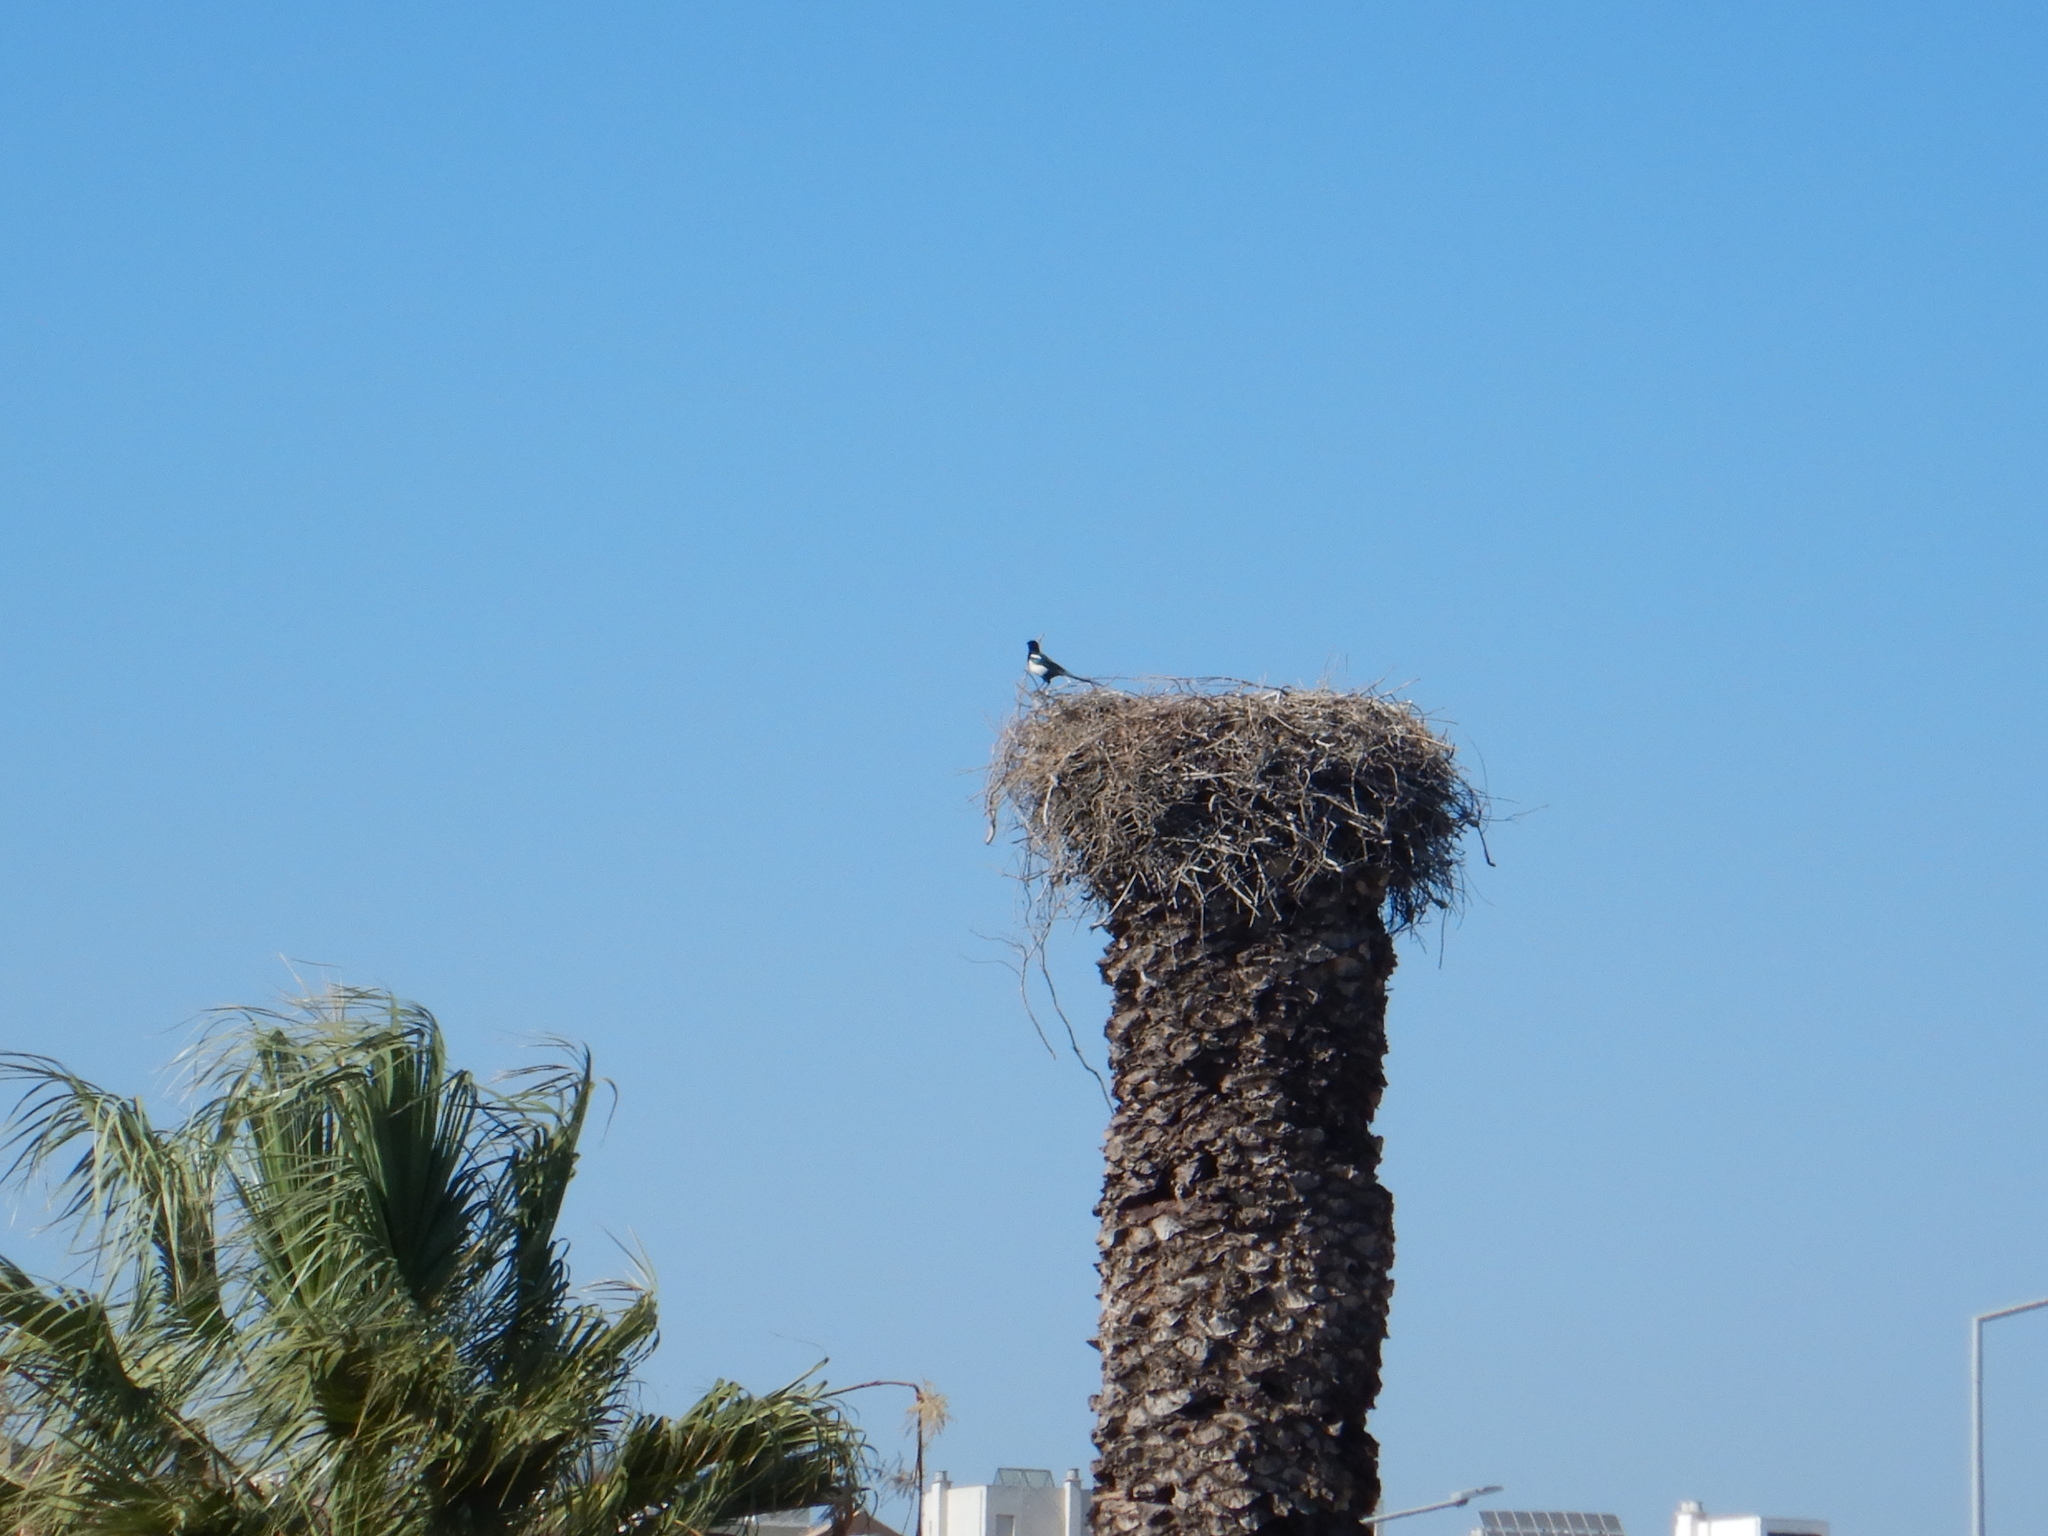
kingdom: Animalia
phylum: Chordata
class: Aves
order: Passeriformes
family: Corvidae
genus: Pica
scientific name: Pica pica
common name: Eurasian magpie
